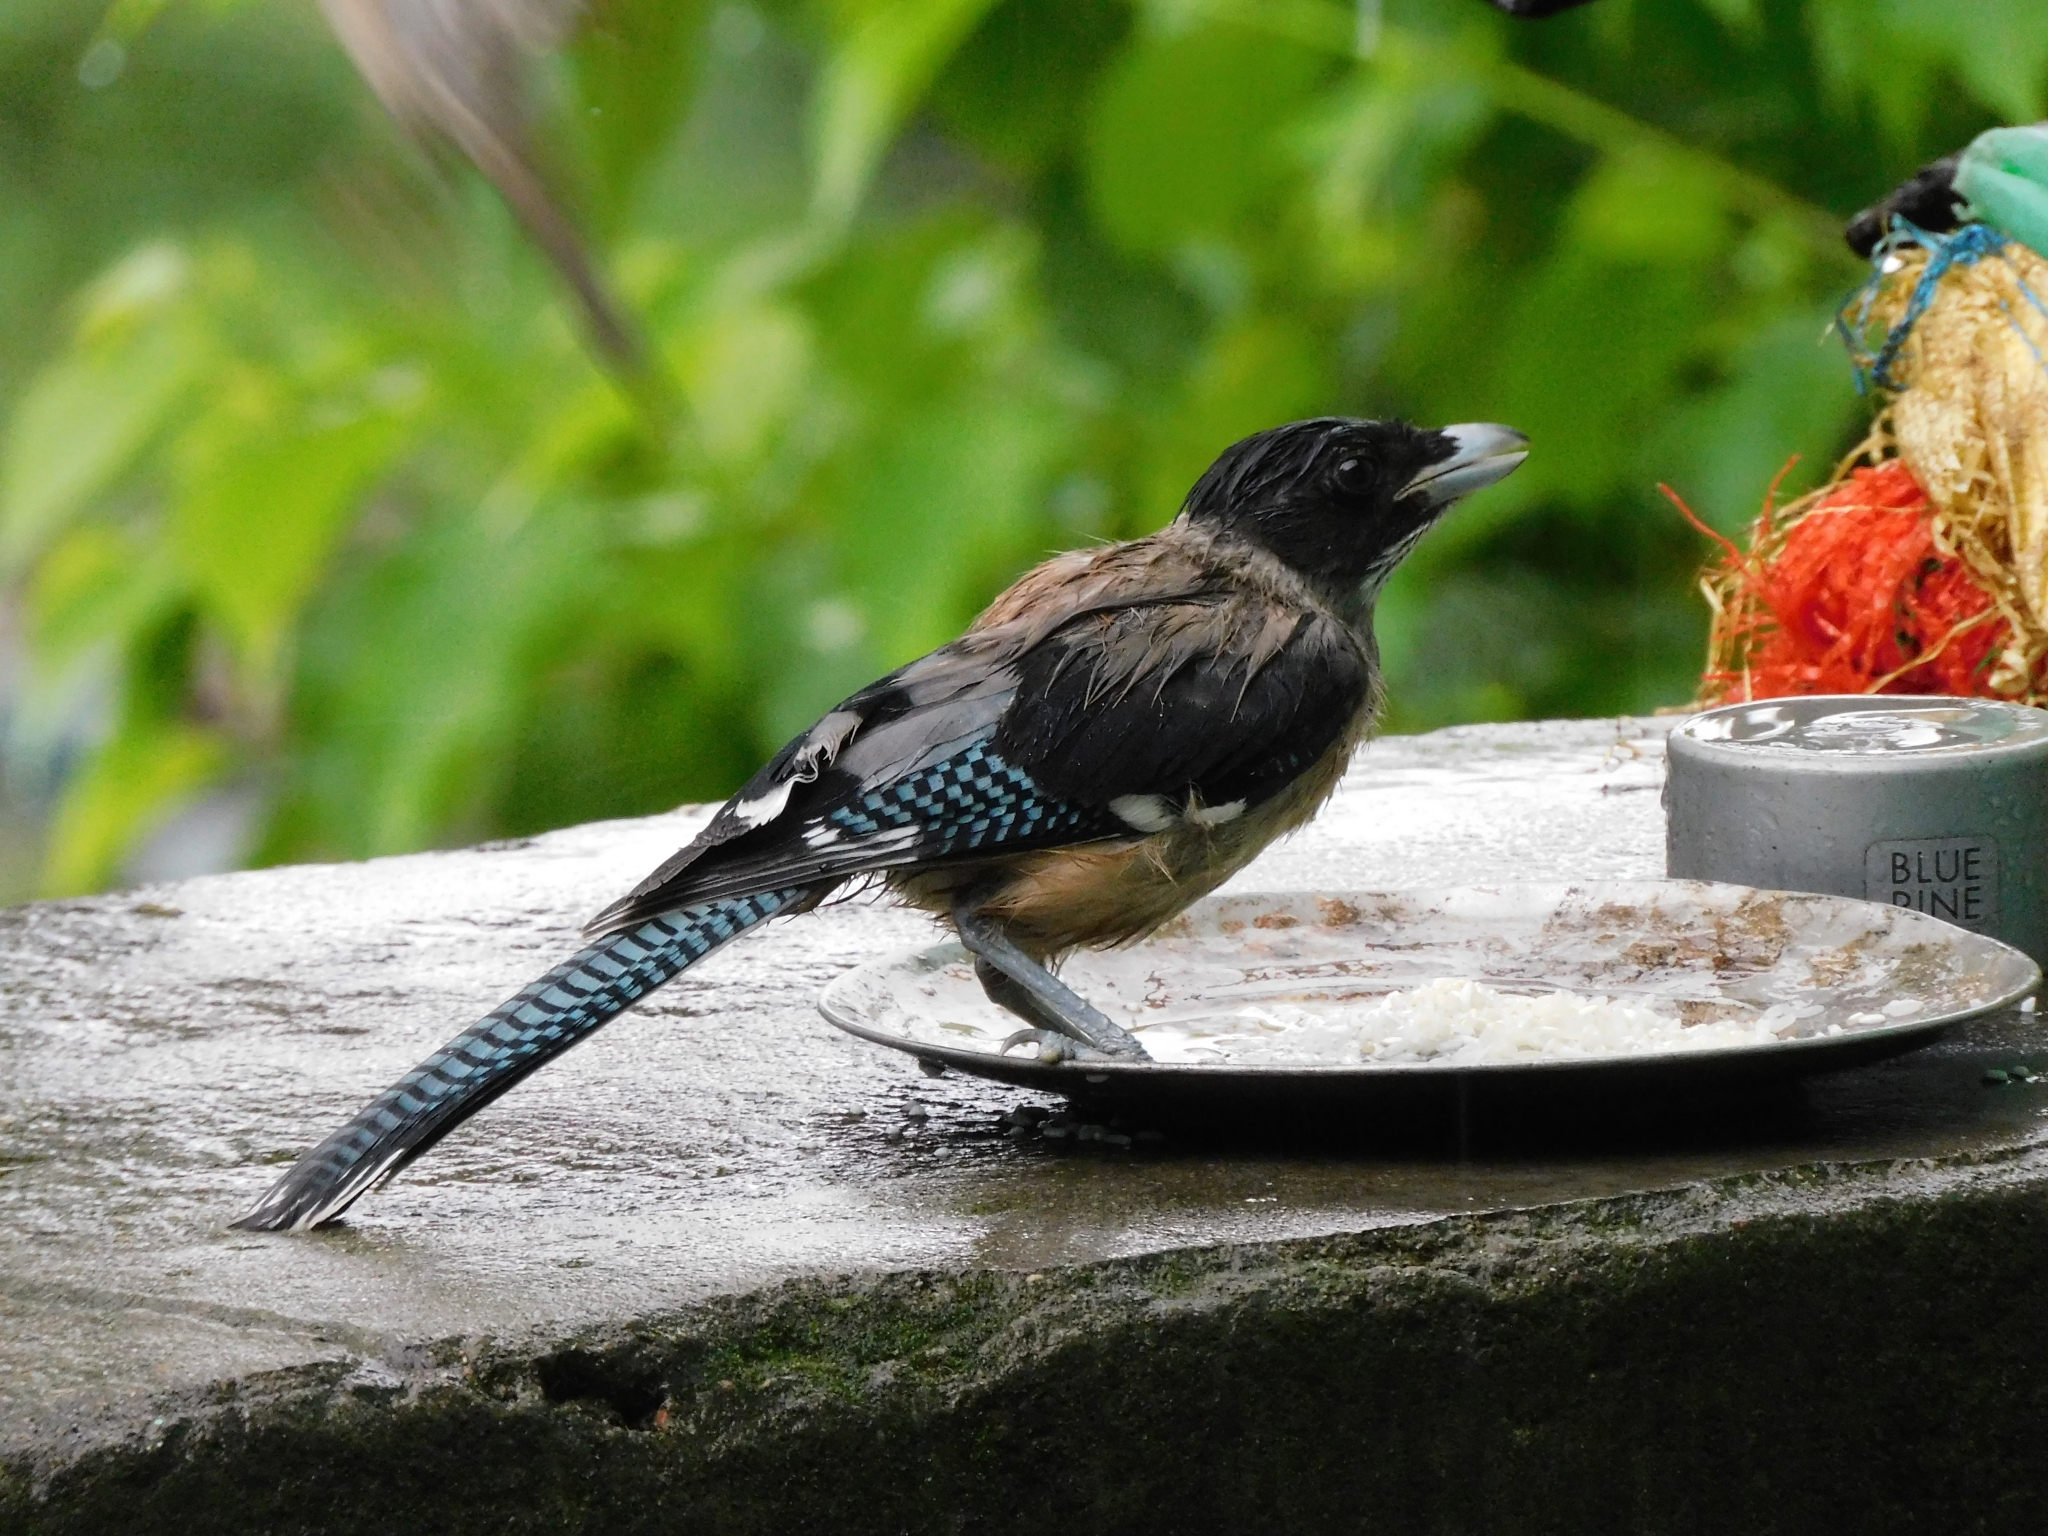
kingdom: Animalia
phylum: Chordata
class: Aves
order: Passeriformes
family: Corvidae
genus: Garrulus
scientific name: Garrulus lanceolatus
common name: Black-headed jay
